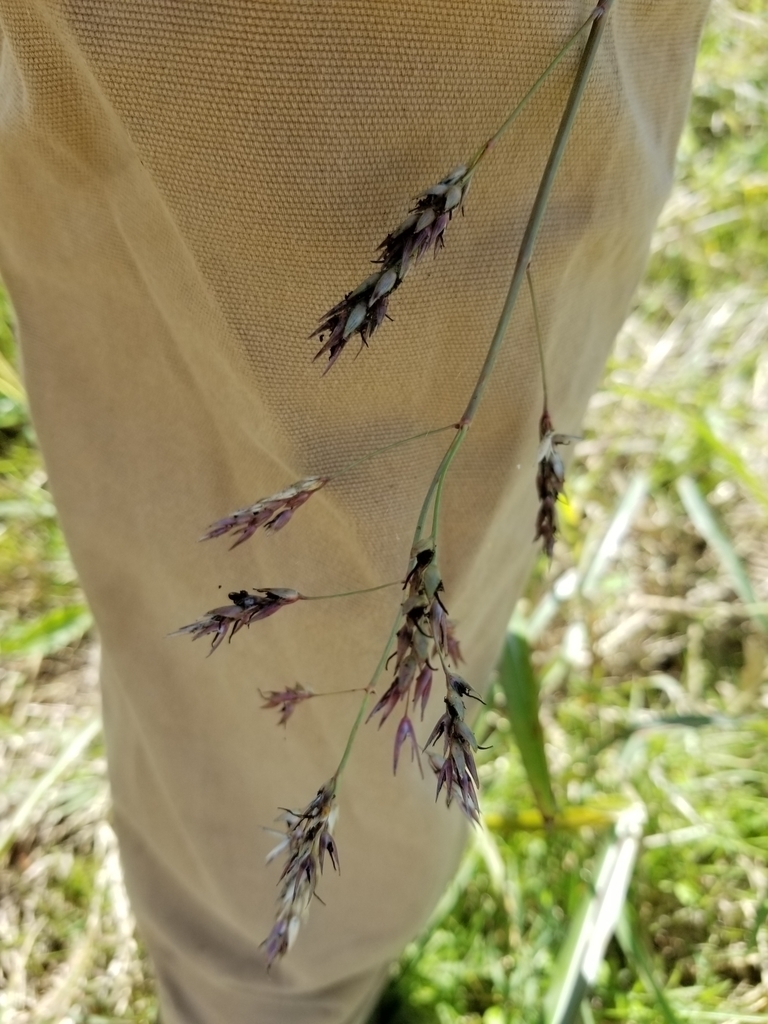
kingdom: Plantae
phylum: Tracheophyta
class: Liliopsida
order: Poales
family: Poaceae
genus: Sorghum
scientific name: Sorghum halepense
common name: Johnson-grass
